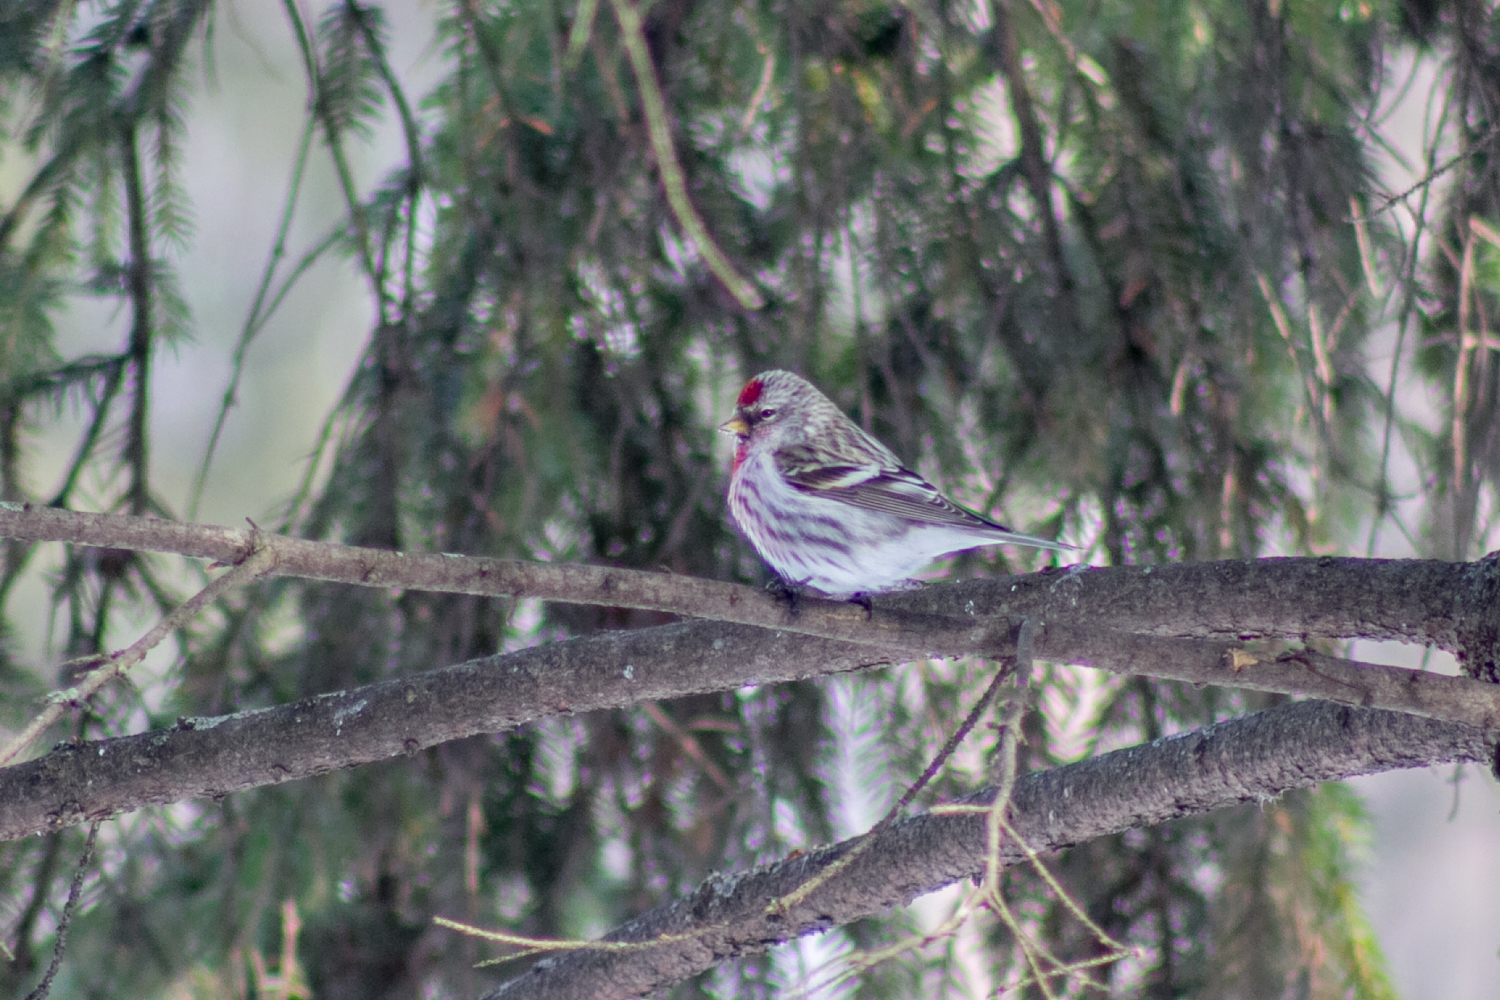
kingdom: Animalia
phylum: Chordata
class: Aves
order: Passeriformes
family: Fringillidae
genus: Acanthis
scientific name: Acanthis flammea
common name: Common redpoll
